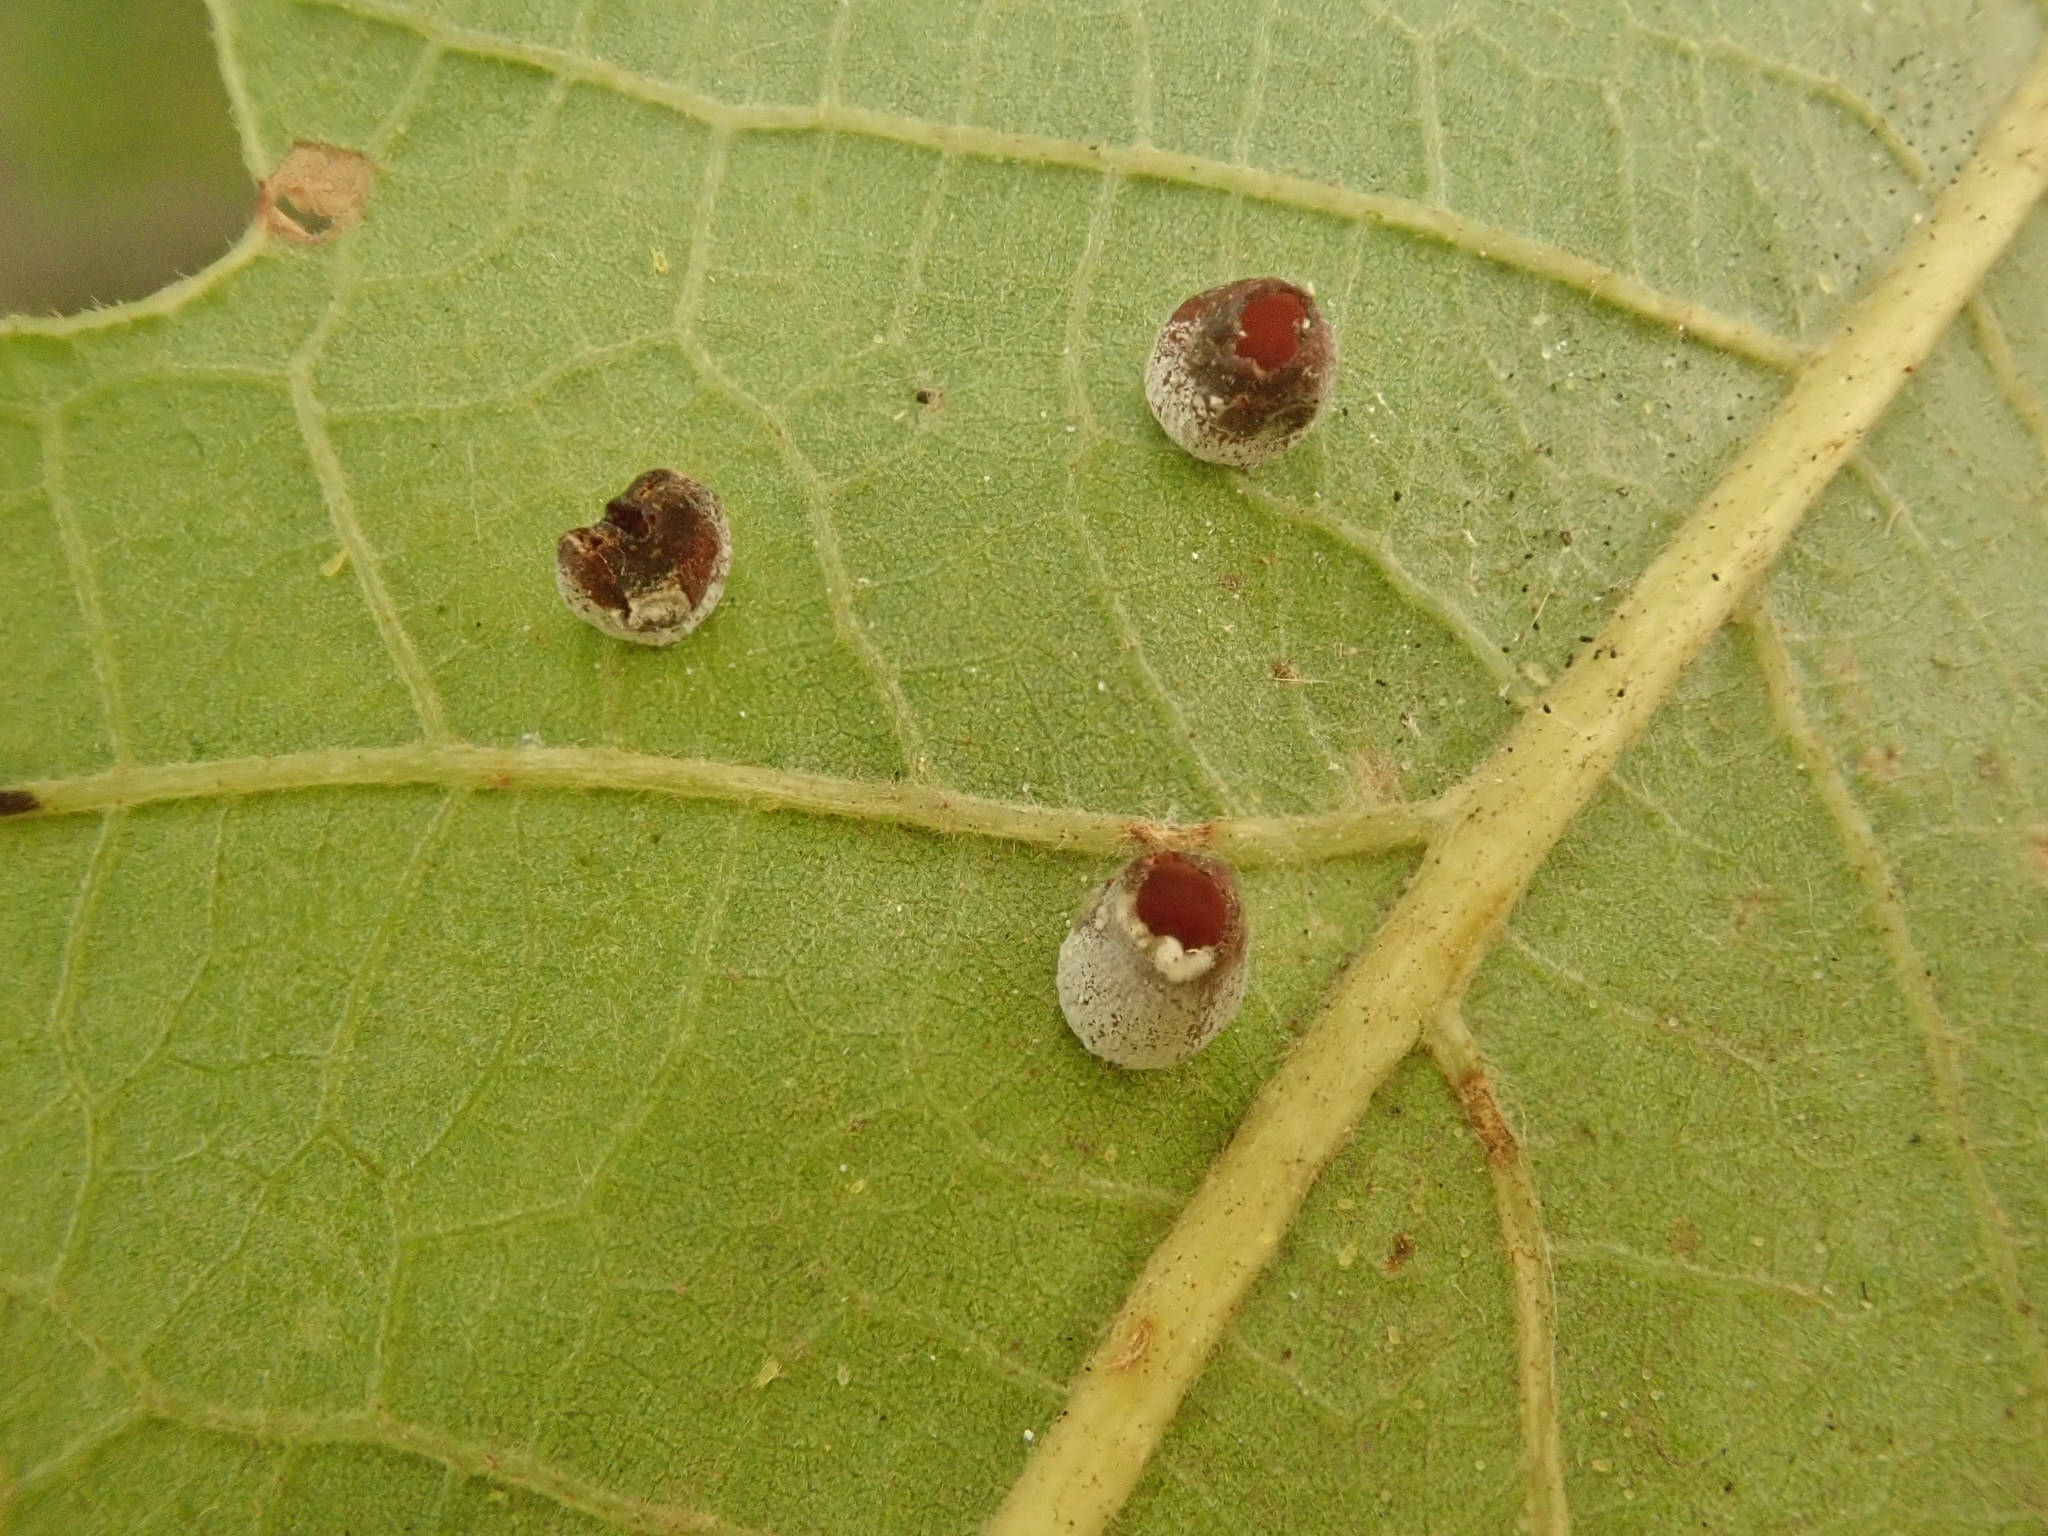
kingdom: Animalia
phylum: Arthropoda
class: Insecta
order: Hymenoptera
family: Cynipidae
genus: Phylloteras
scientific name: Phylloteras
